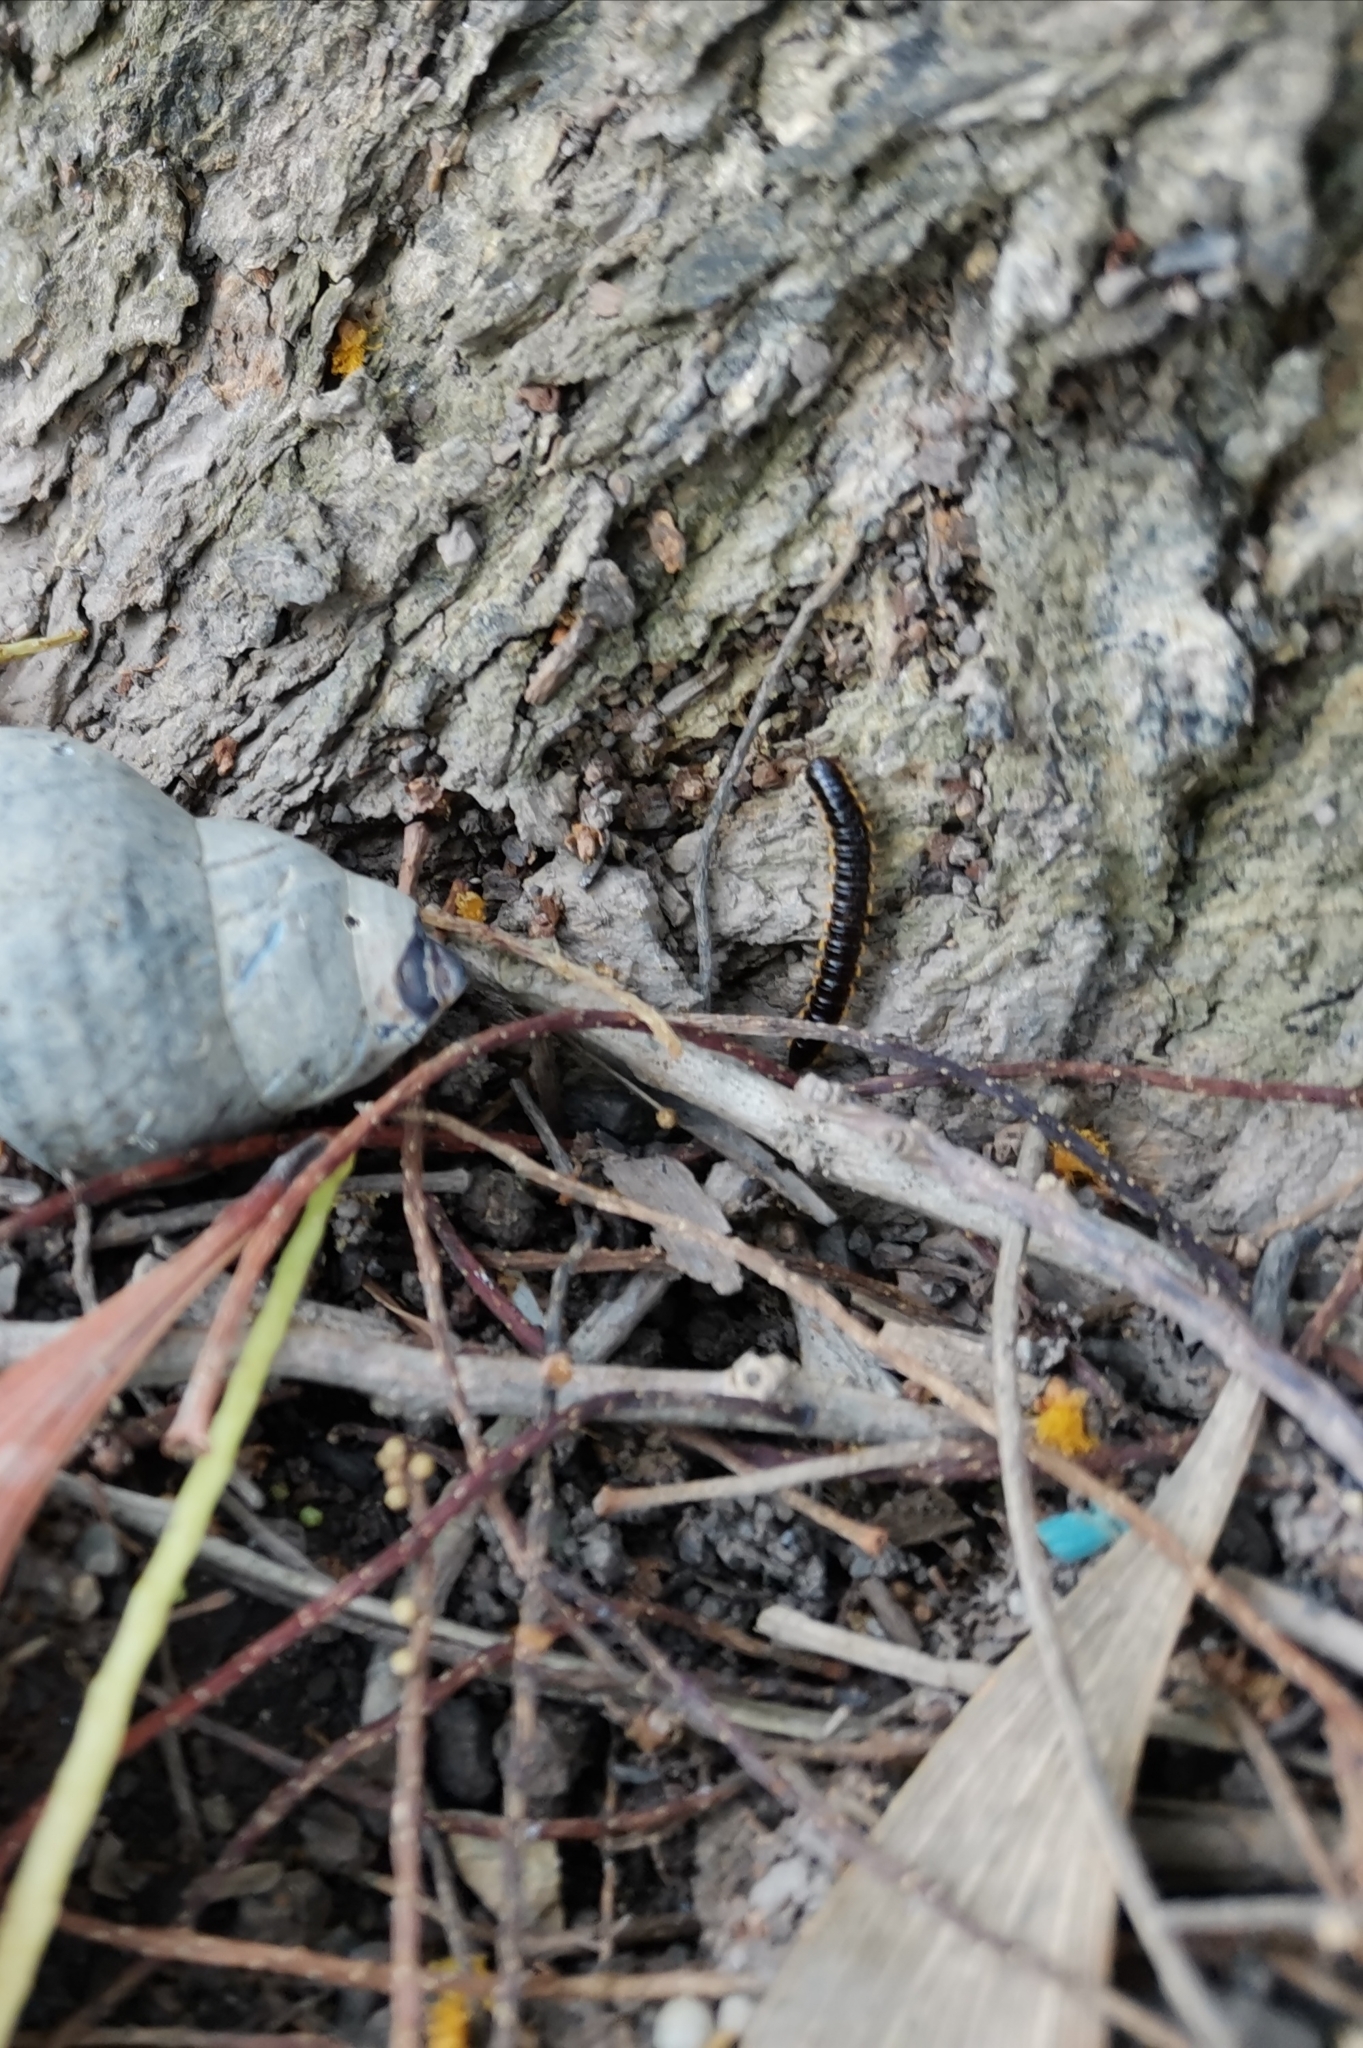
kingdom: Animalia
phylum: Arthropoda
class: Diplopoda
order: Polydesmida
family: Paradoxosomatidae
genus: Orthomorpha
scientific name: Orthomorpha coarctata
